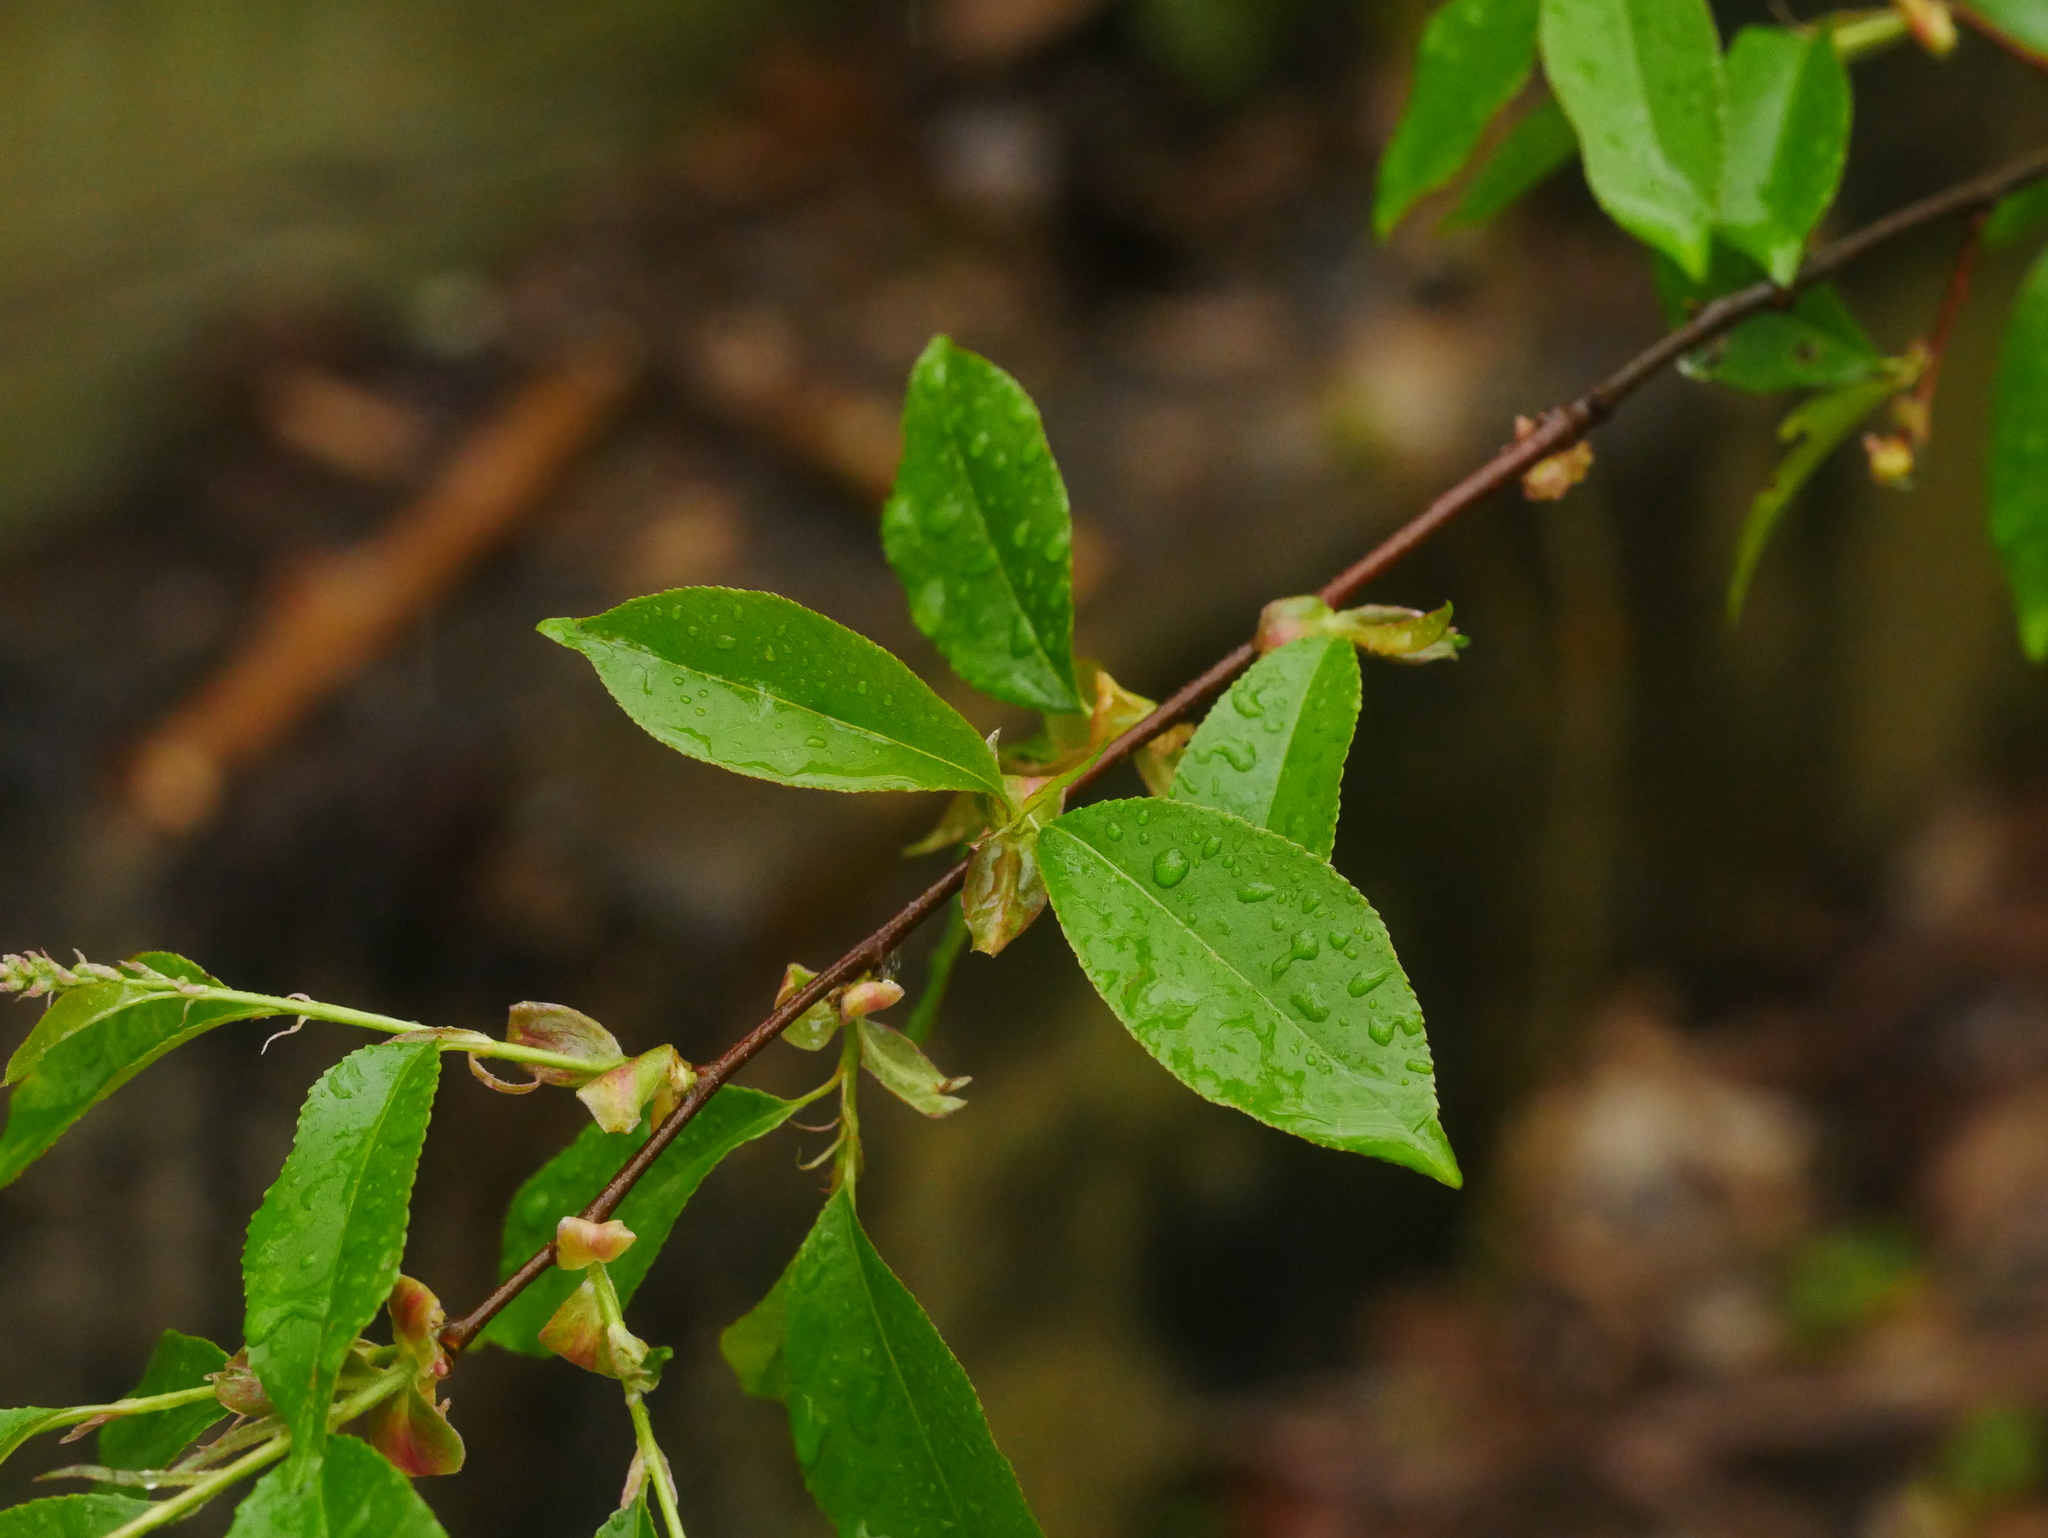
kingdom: Plantae
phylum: Tracheophyta
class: Magnoliopsida
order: Rosales
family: Rosaceae
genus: Prunus
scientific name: Prunus serotina
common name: Black cherry
